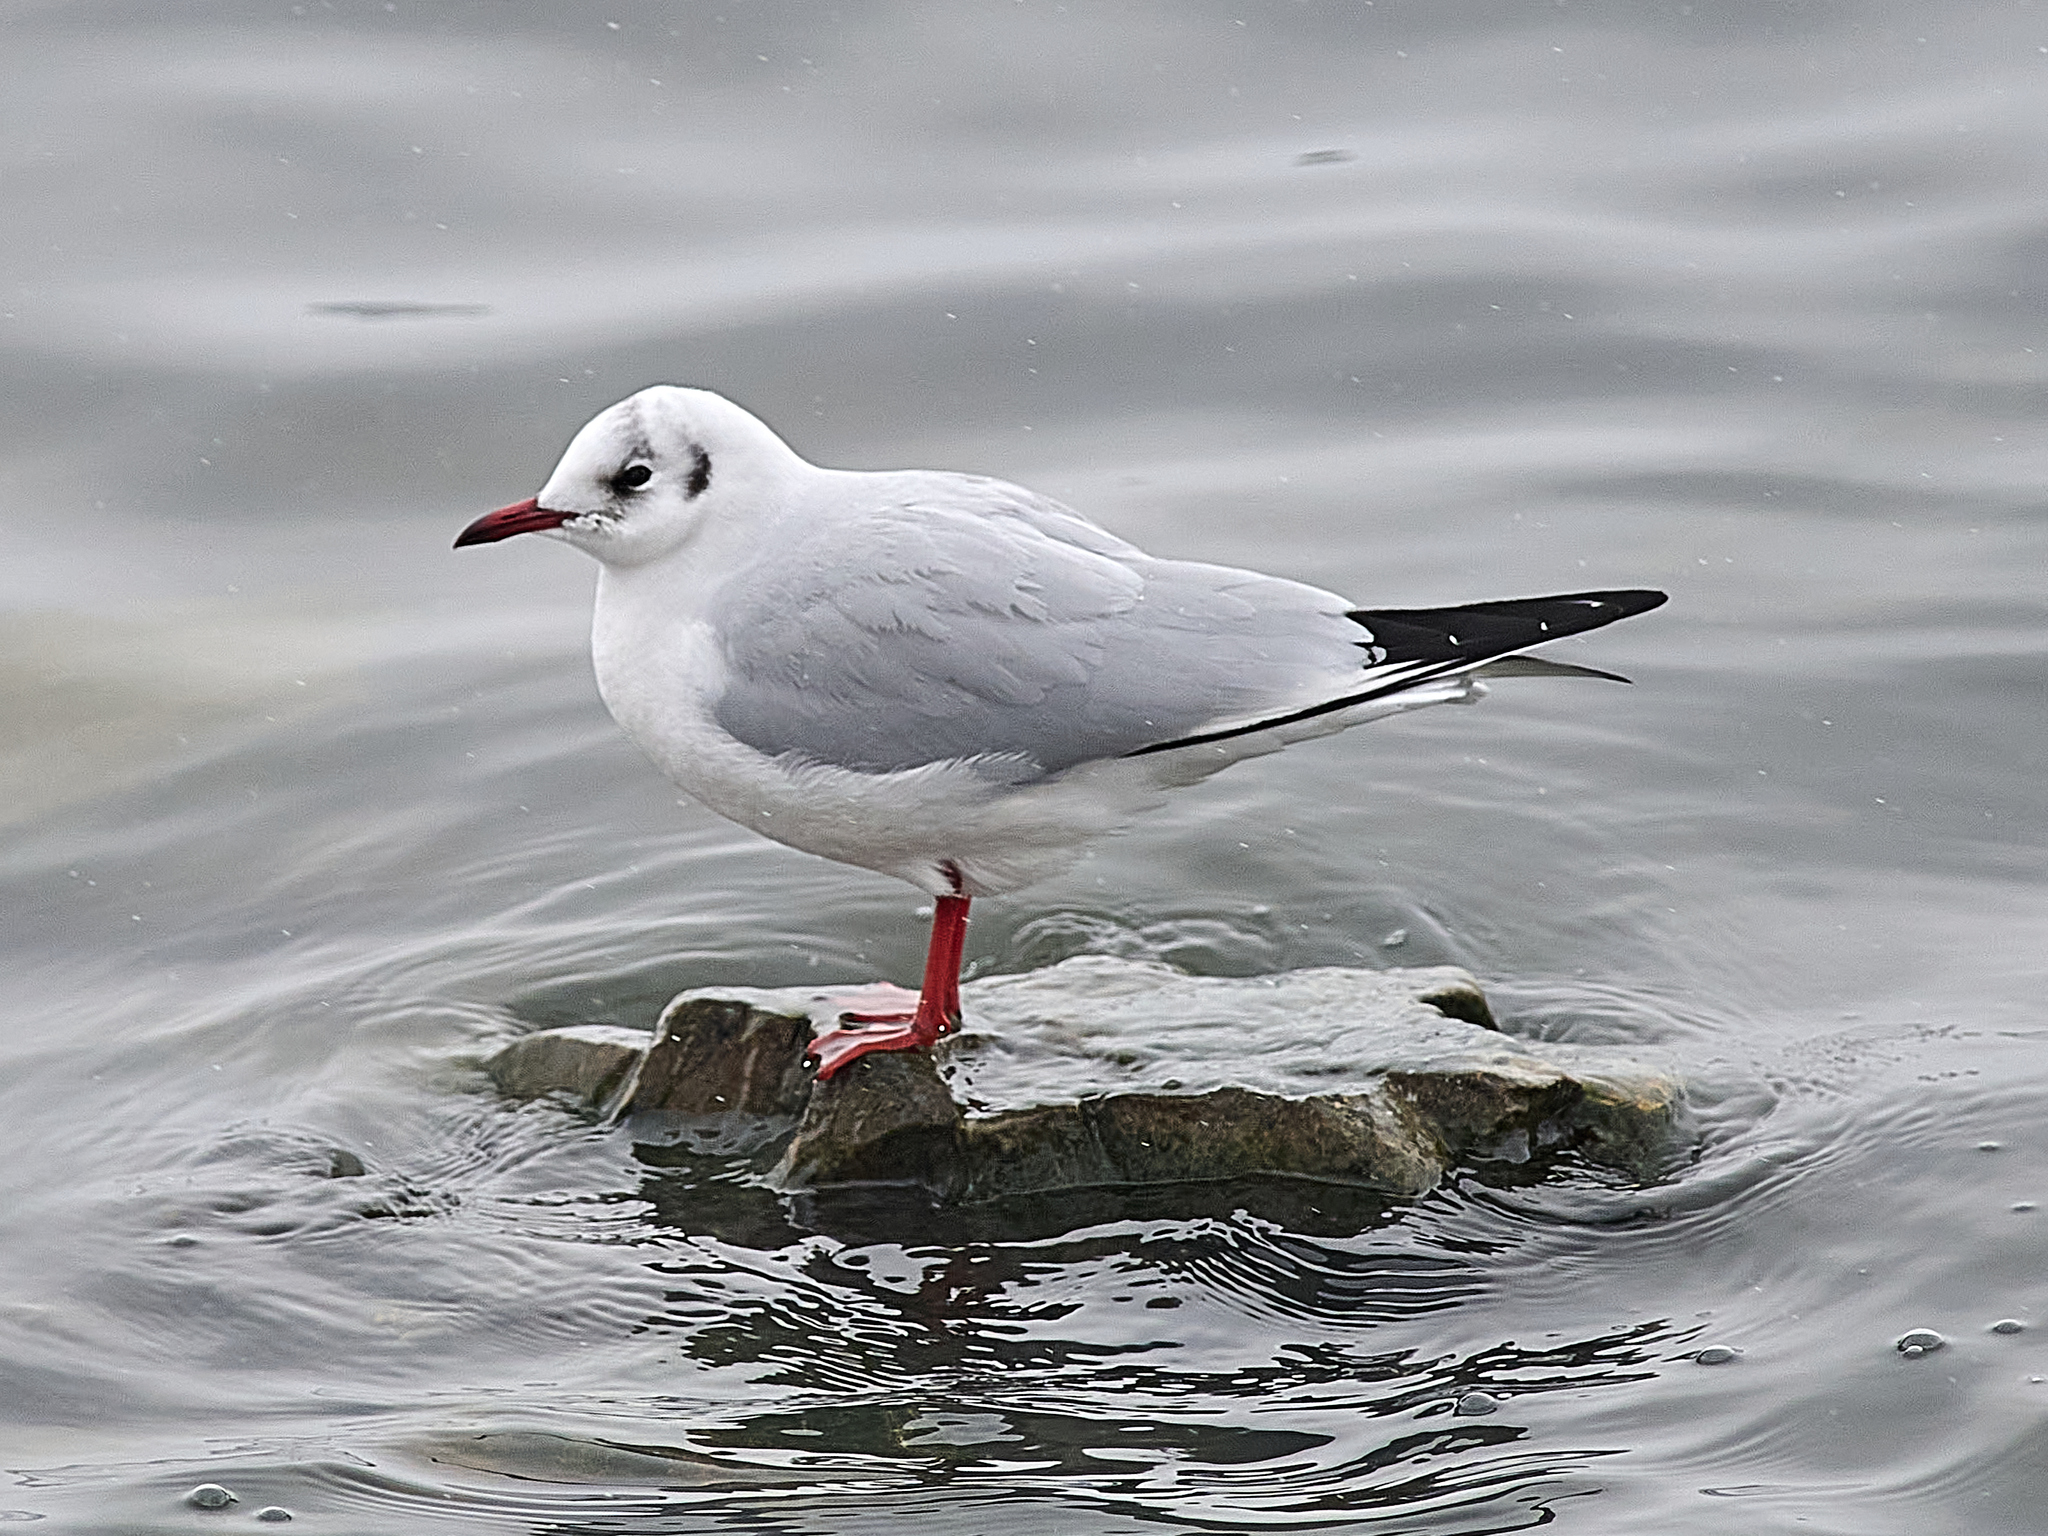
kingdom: Animalia
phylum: Chordata
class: Aves
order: Charadriiformes
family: Laridae
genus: Chroicocephalus
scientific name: Chroicocephalus ridibundus
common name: Black-headed gull
